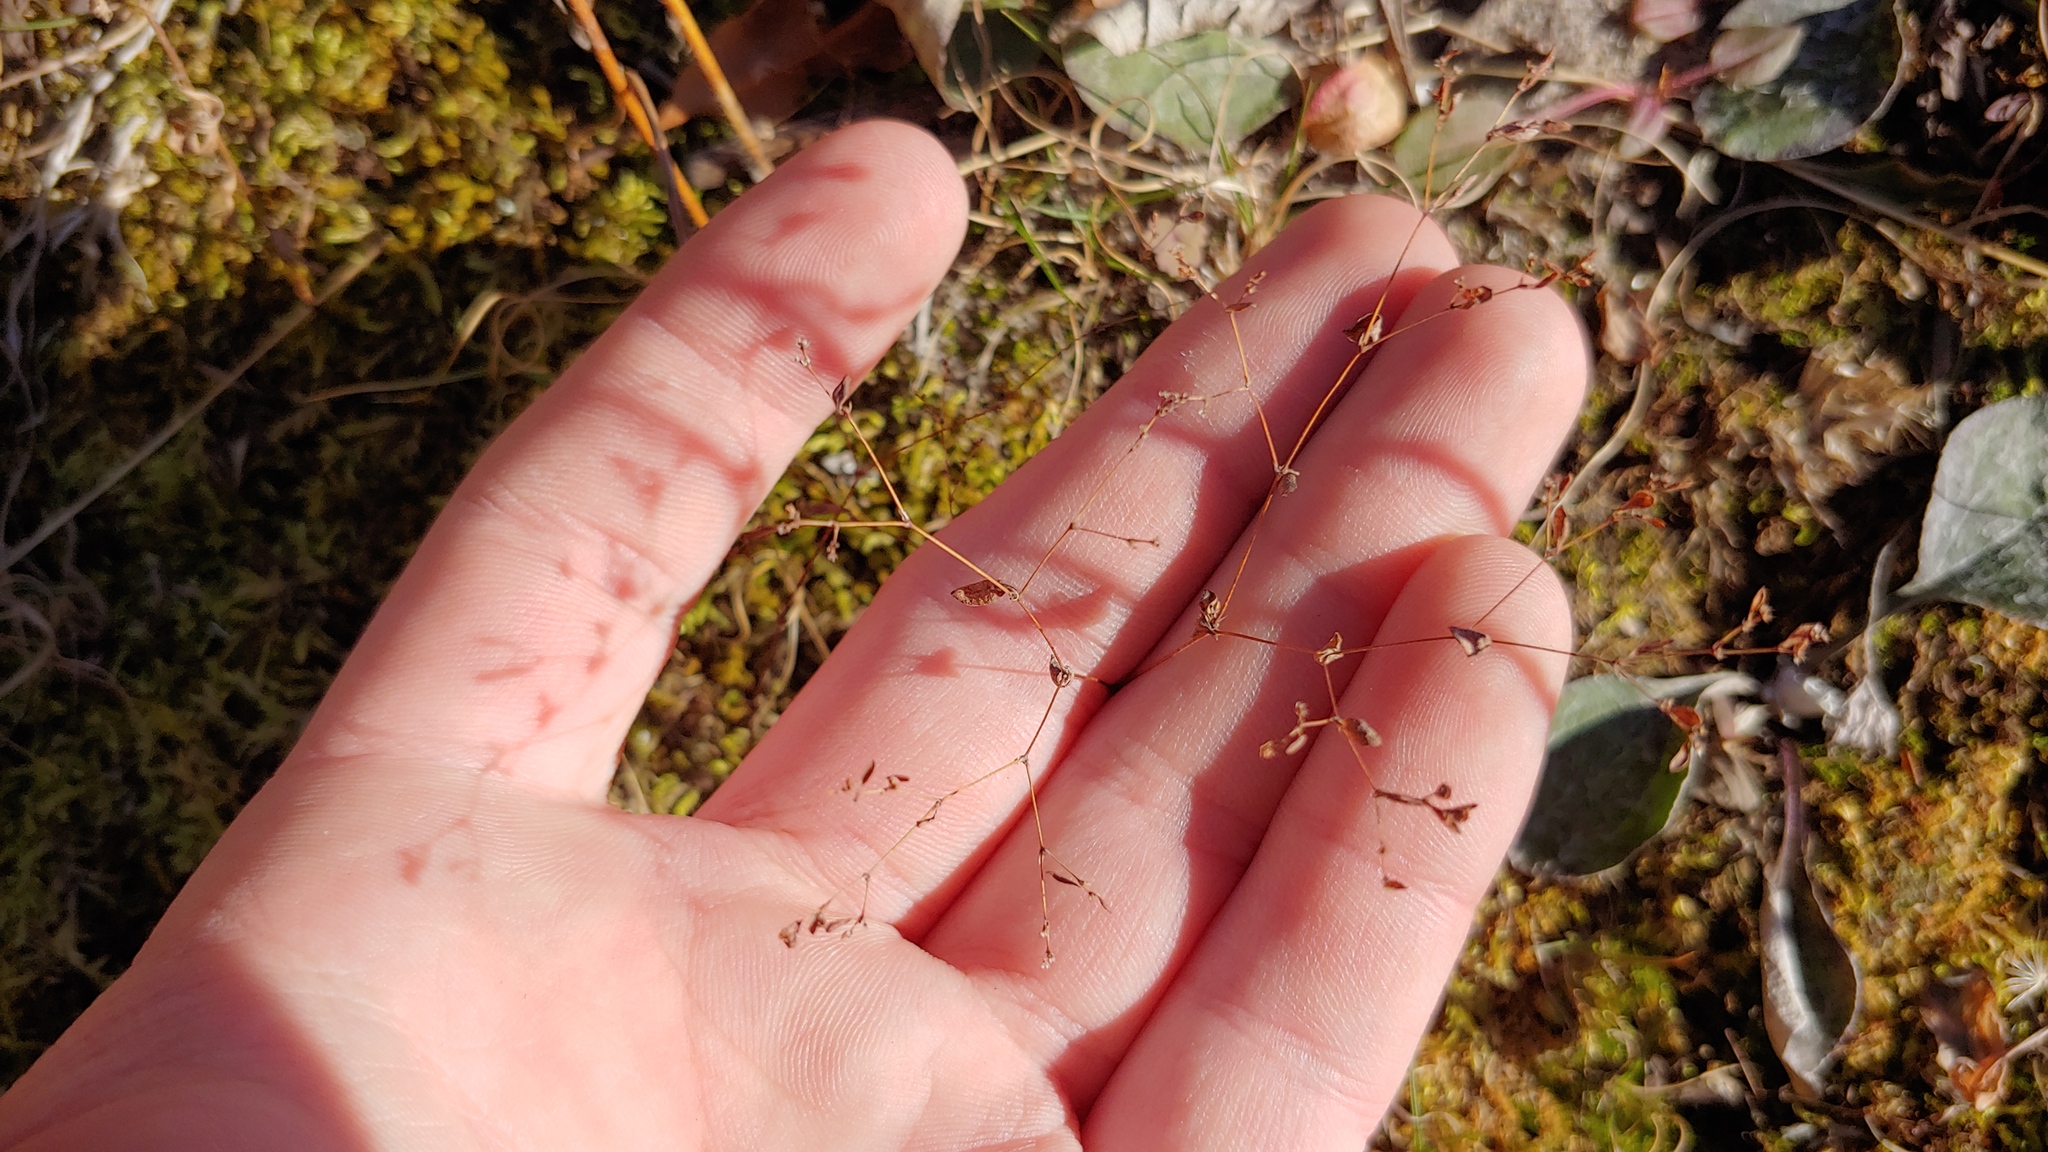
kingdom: Plantae
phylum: Tracheophyta
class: Magnoliopsida
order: Caryophyllales
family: Caryophyllaceae
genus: Paronychia
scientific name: Paronychia canadensis
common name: Canada forked nailwort
